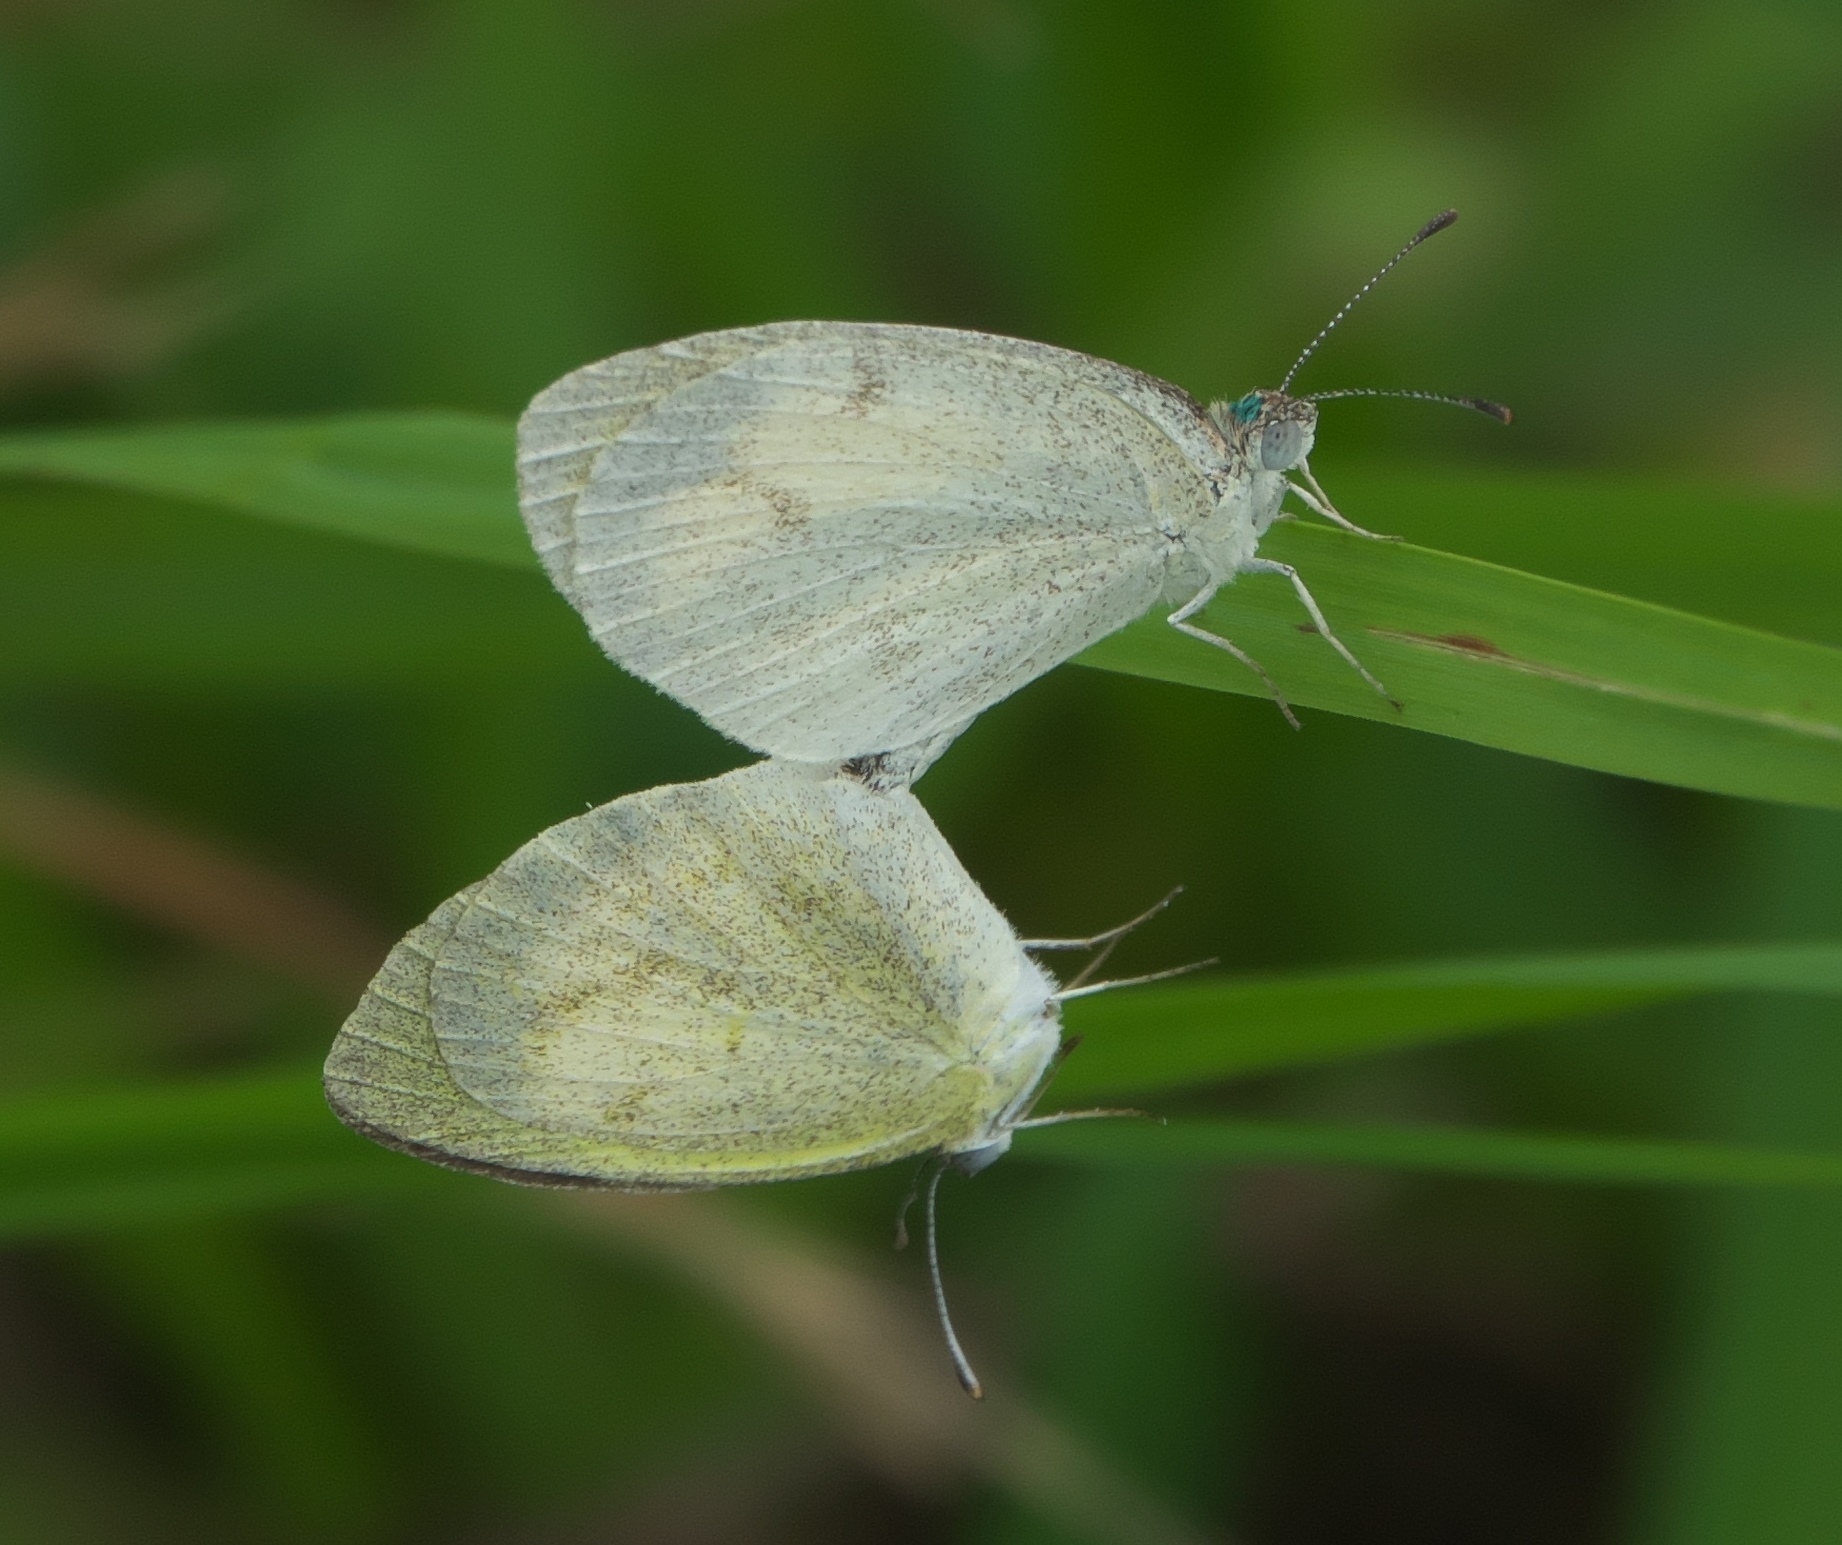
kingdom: Animalia
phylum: Arthropoda
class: Insecta
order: Lepidoptera
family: Pieridae
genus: Eurema
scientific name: Eurema daira
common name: Barred sulphur
